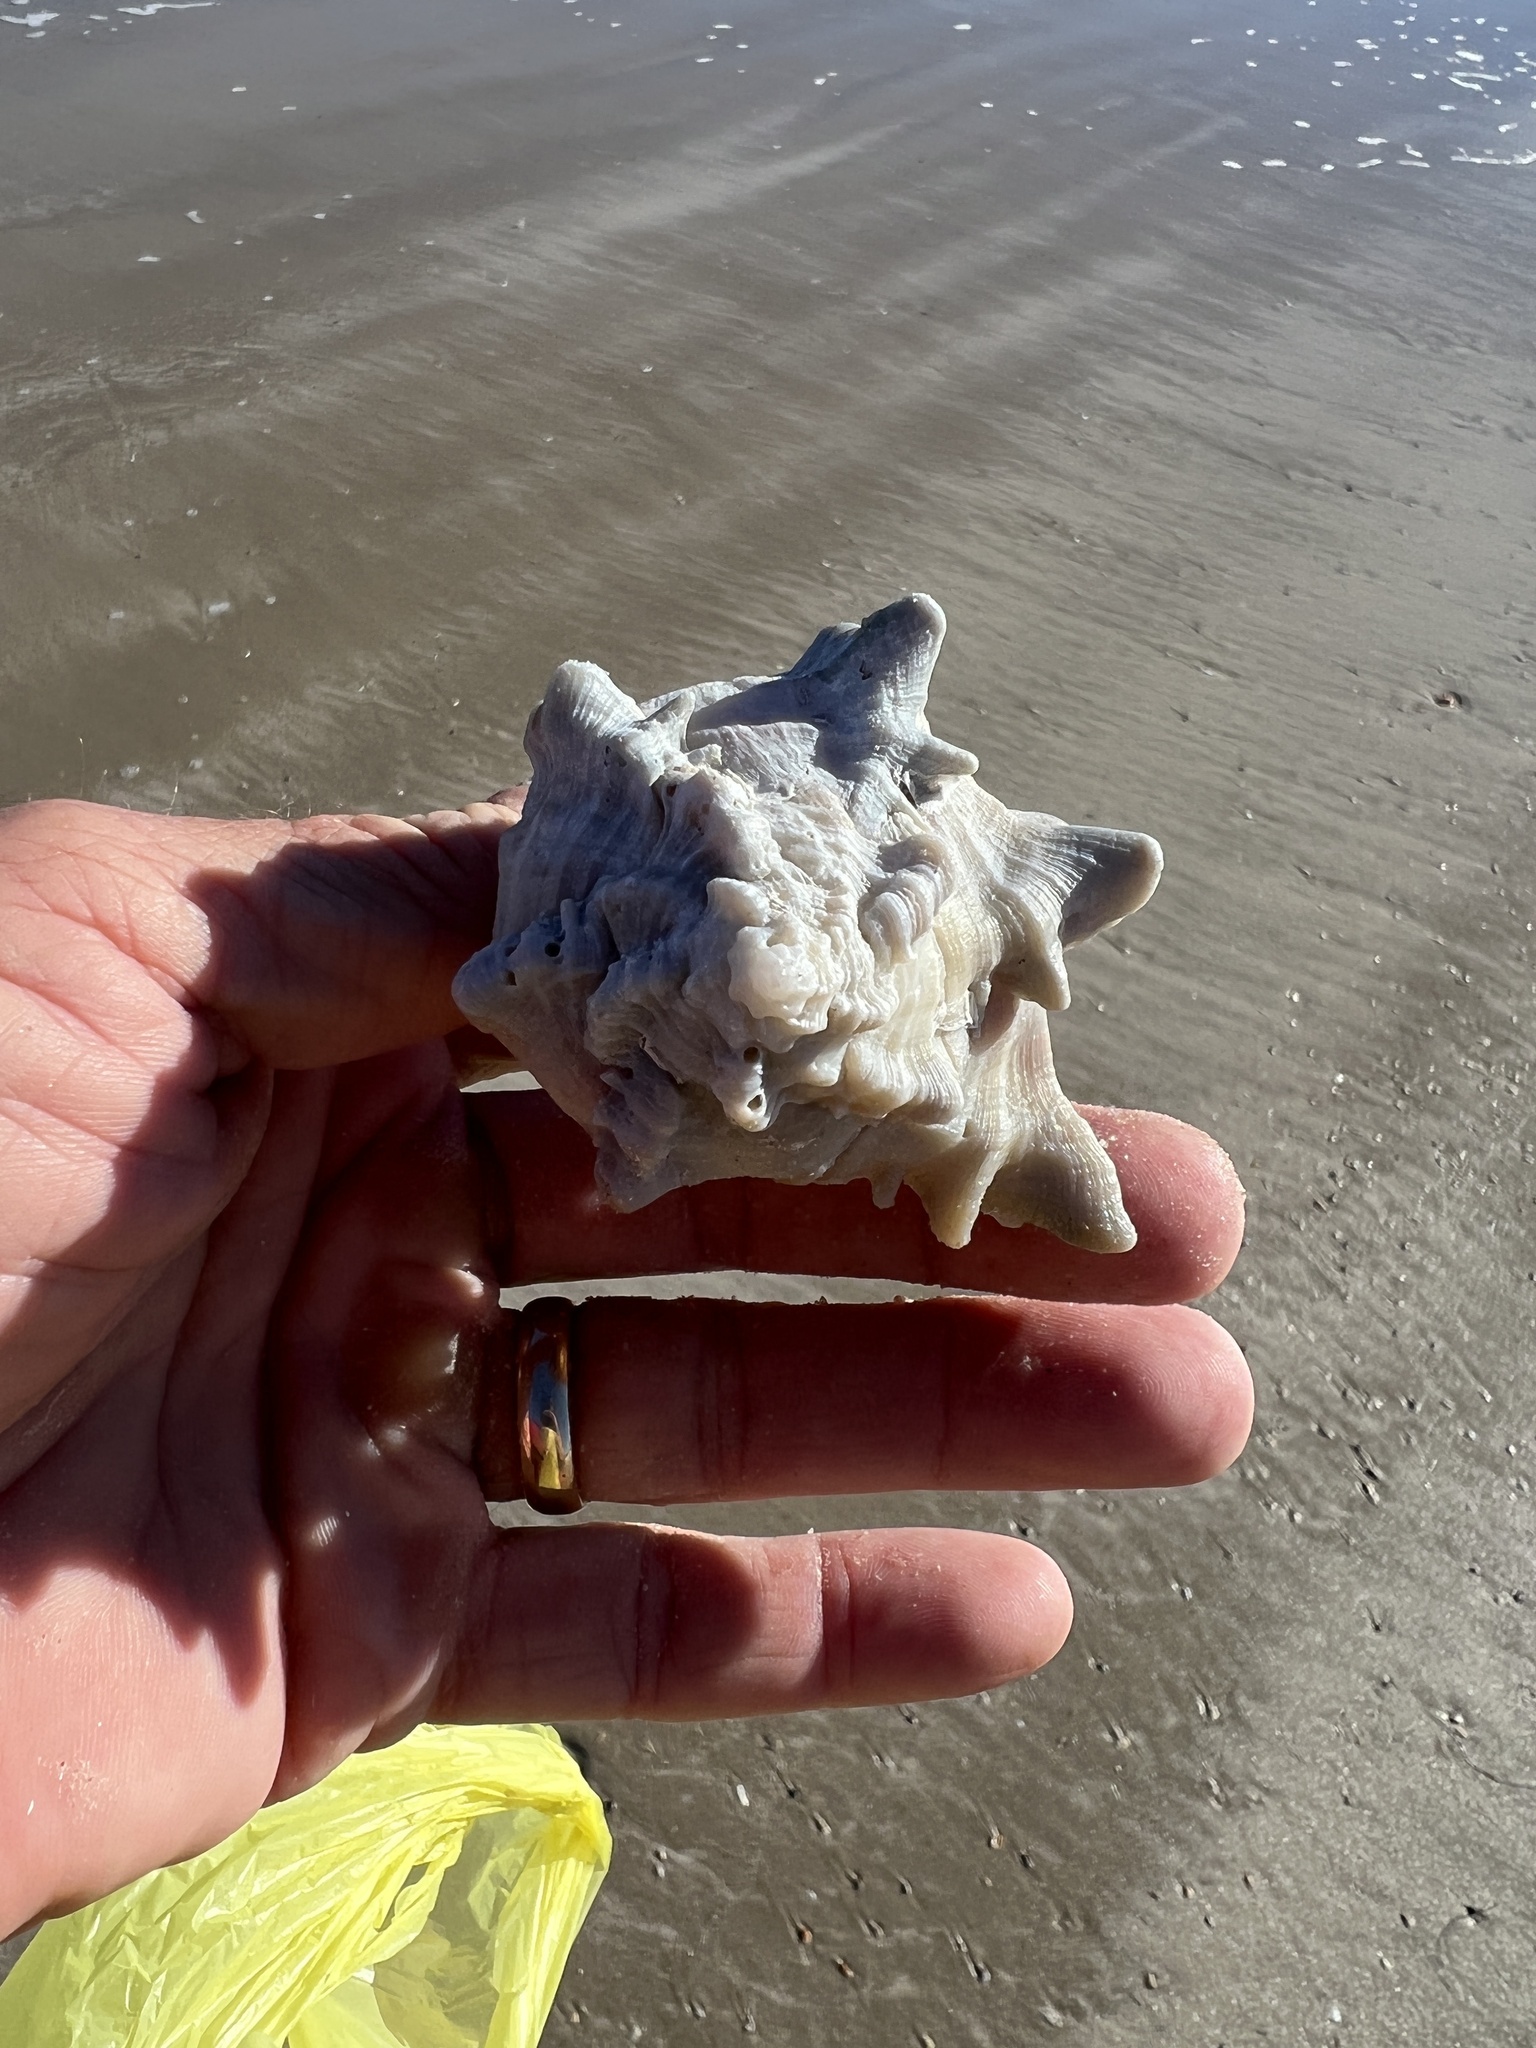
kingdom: Animalia
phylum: Mollusca
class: Gastropoda
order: Neogastropoda
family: Muricidae
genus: Hexaplex
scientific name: Hexaplex fulvescens
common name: Tawny murex
